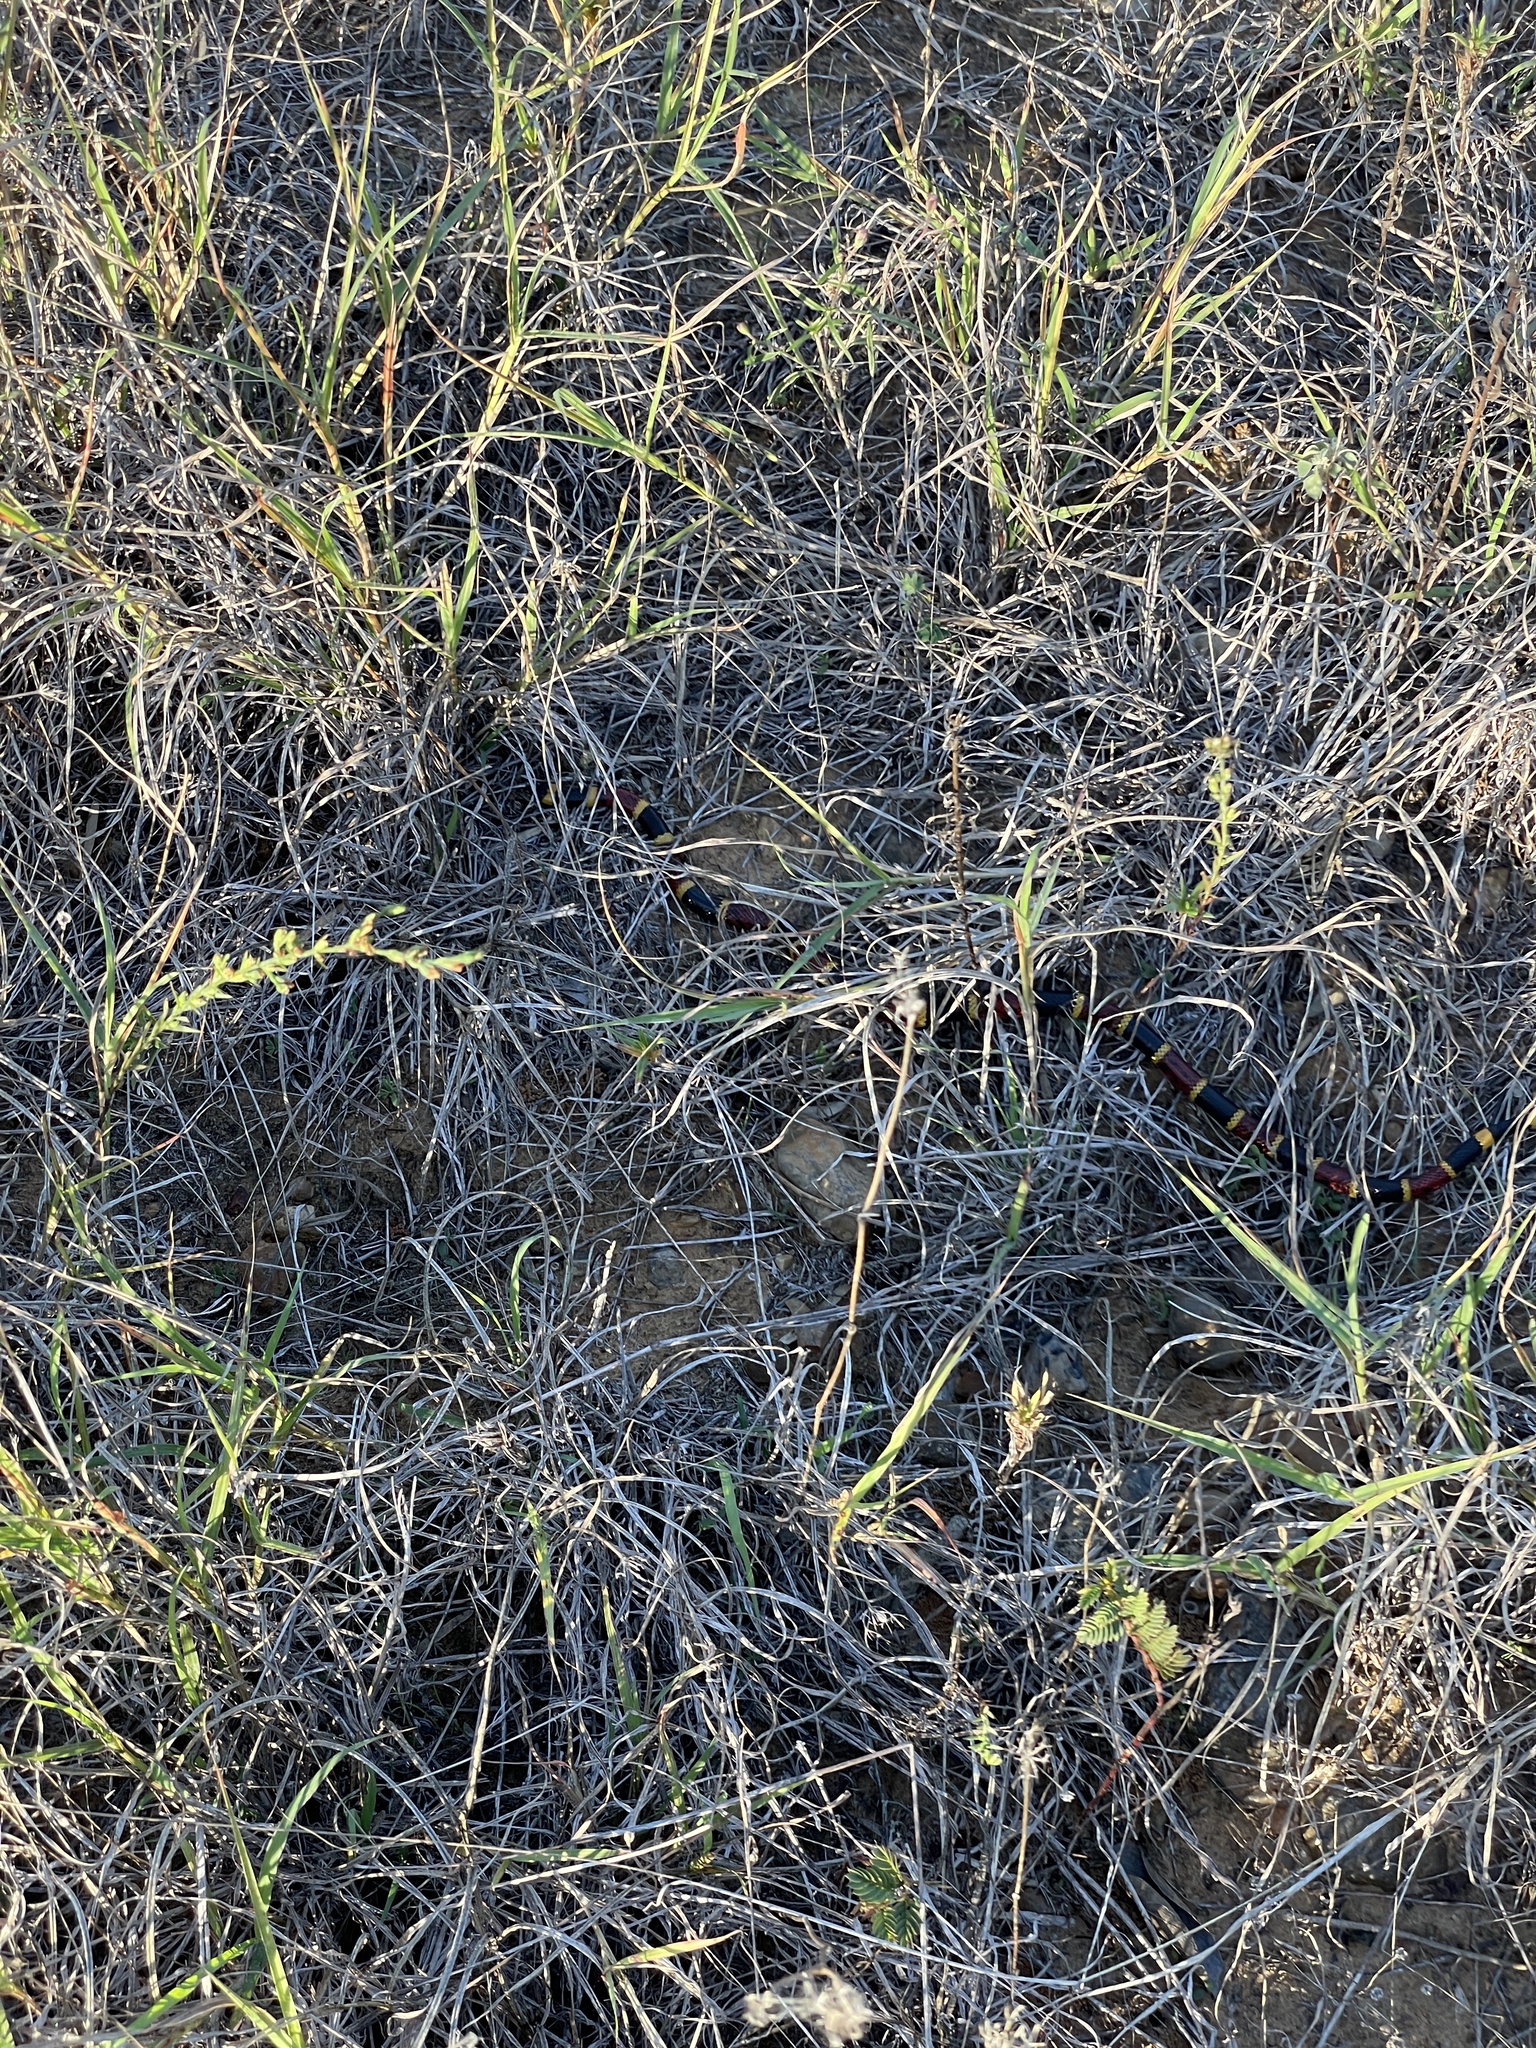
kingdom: Animalia
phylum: Chordata
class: Squamata
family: Elapidae
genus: Micrurus
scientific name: Micrurus tener
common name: Texas coral snake
